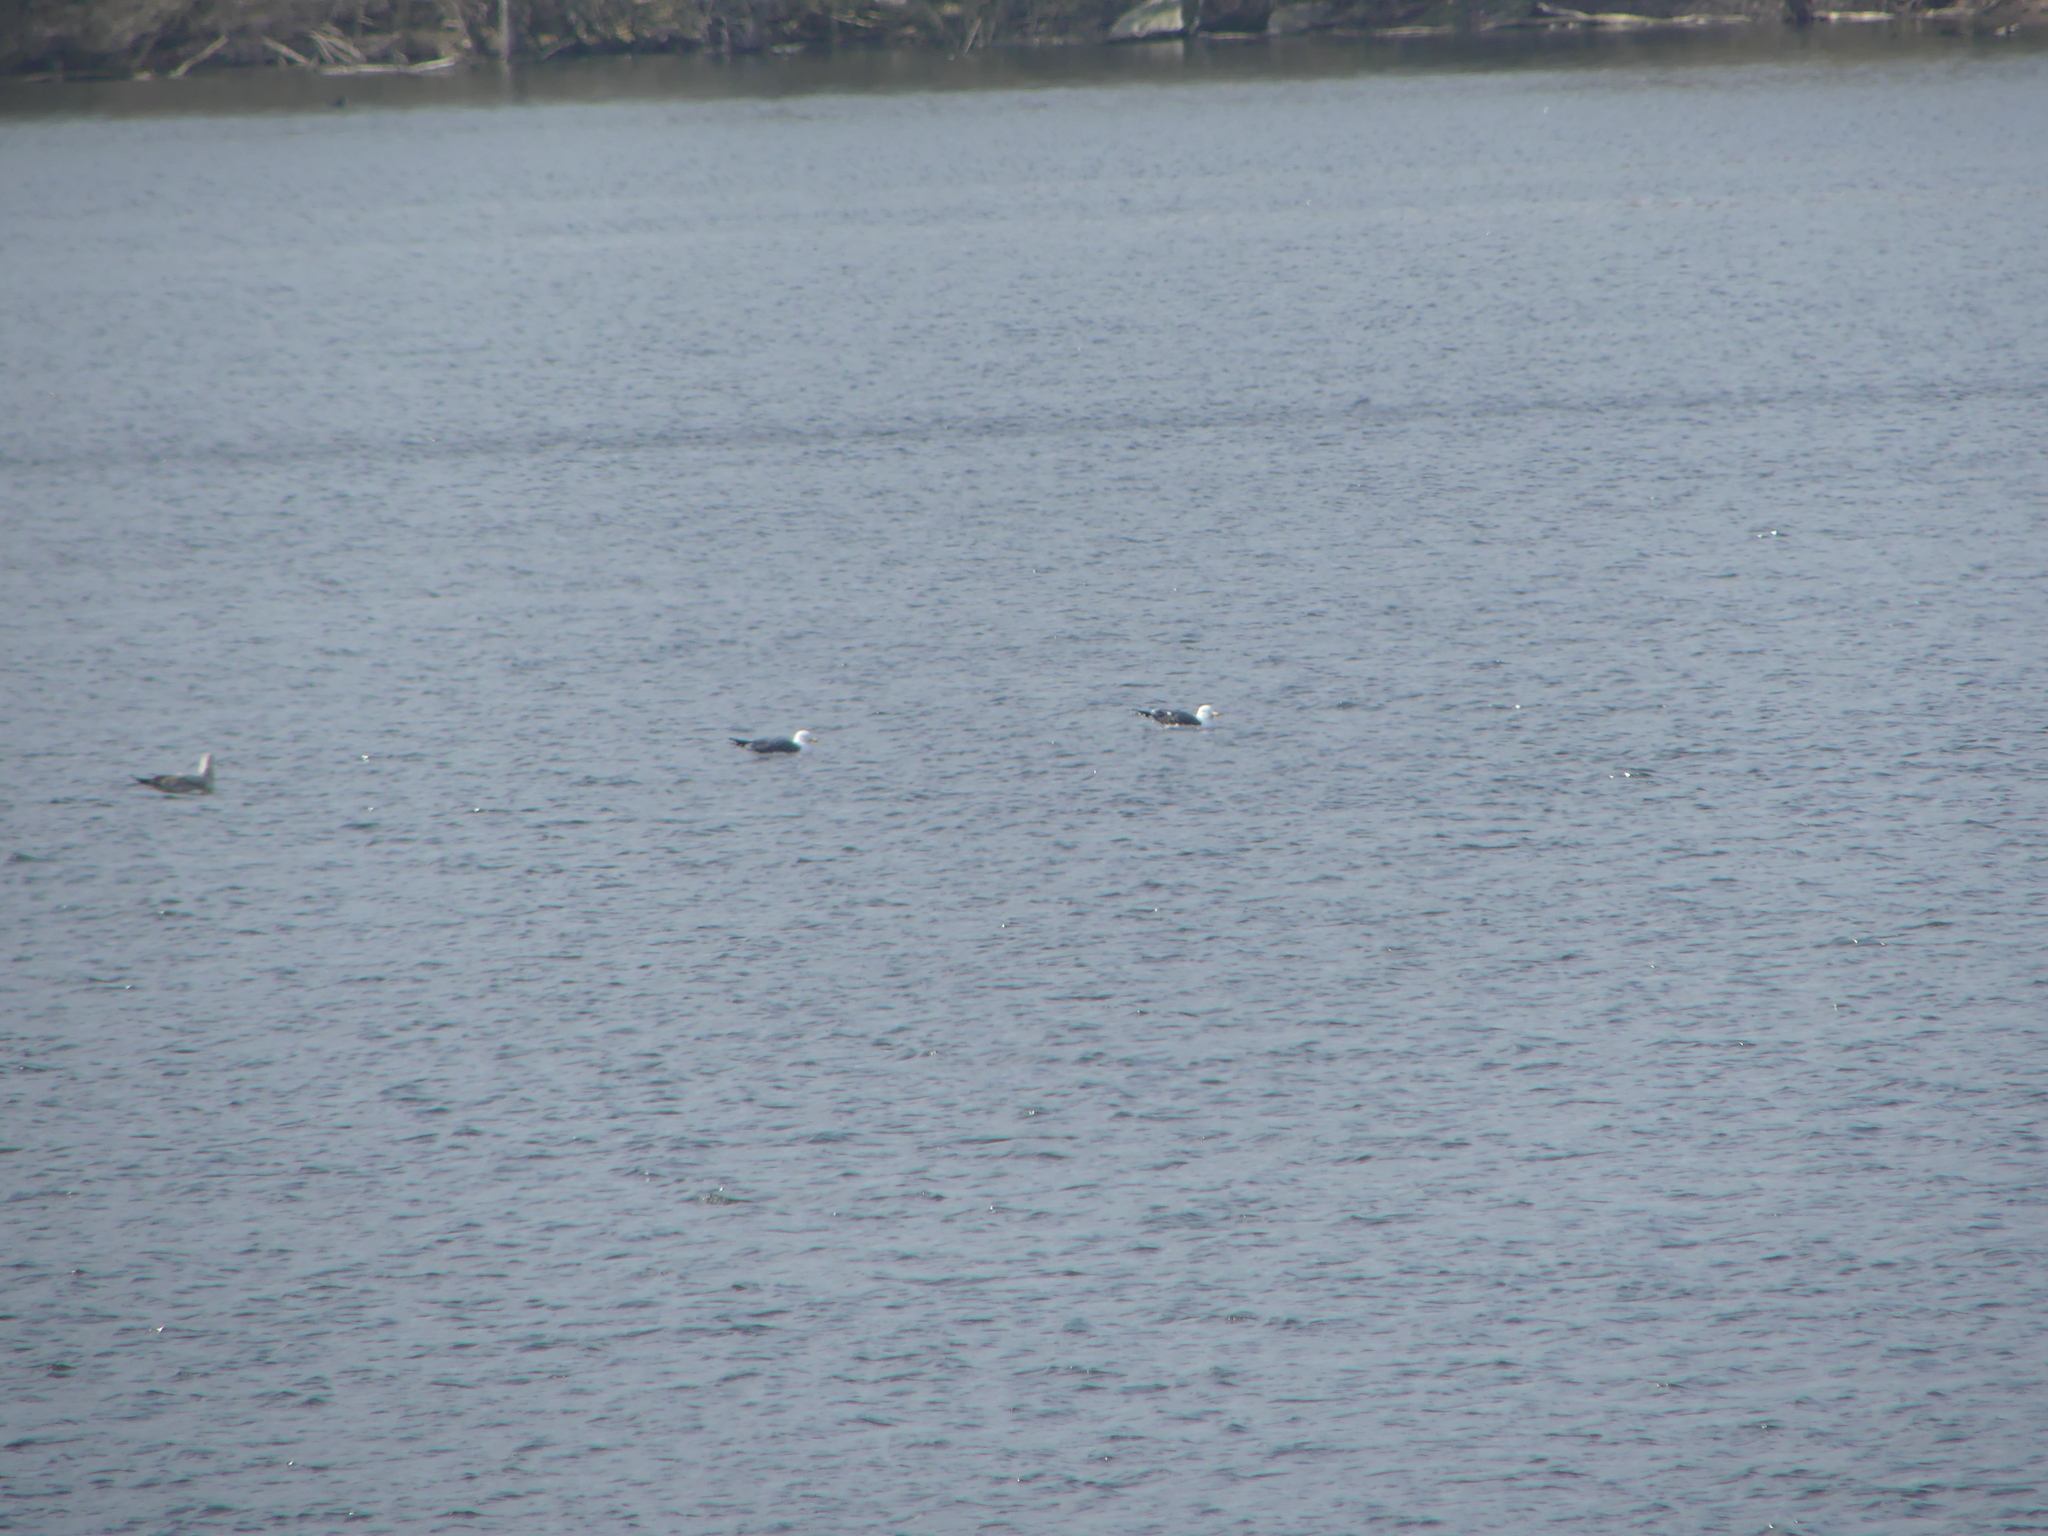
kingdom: Animalia
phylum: Chordata
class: Aves
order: Charadriiformes
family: Laridae
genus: Larus
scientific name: Larus fuscus
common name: Lesser black-backed gull
